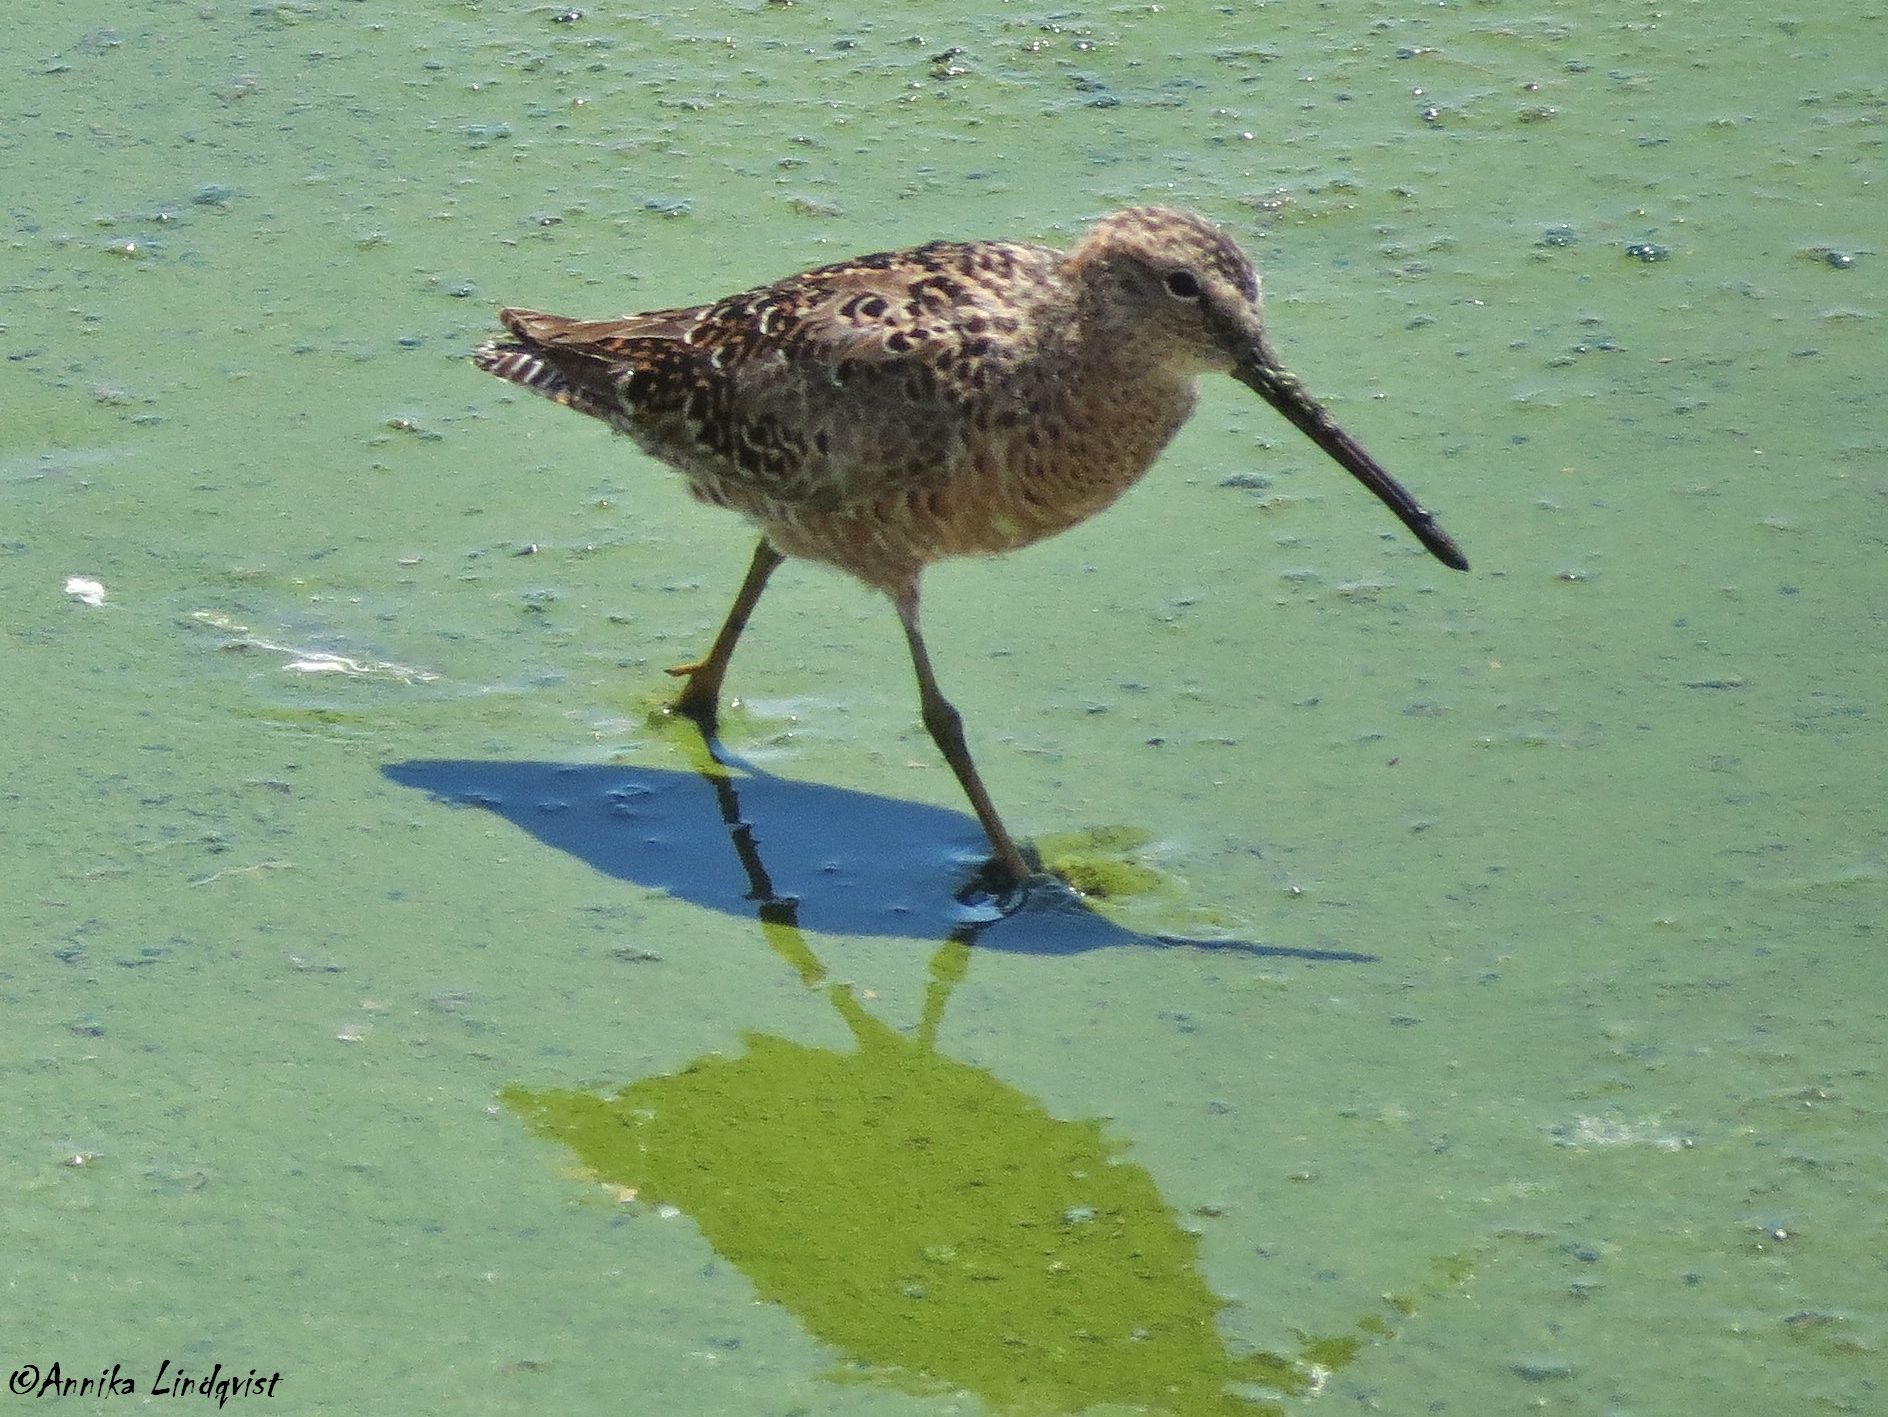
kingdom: Animalia
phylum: Chordata
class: Aves
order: Charadriiformes
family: Scolopacidae
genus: Limnodromus
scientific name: Limnodromus scolopaceus
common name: Long-billed dowitcher
